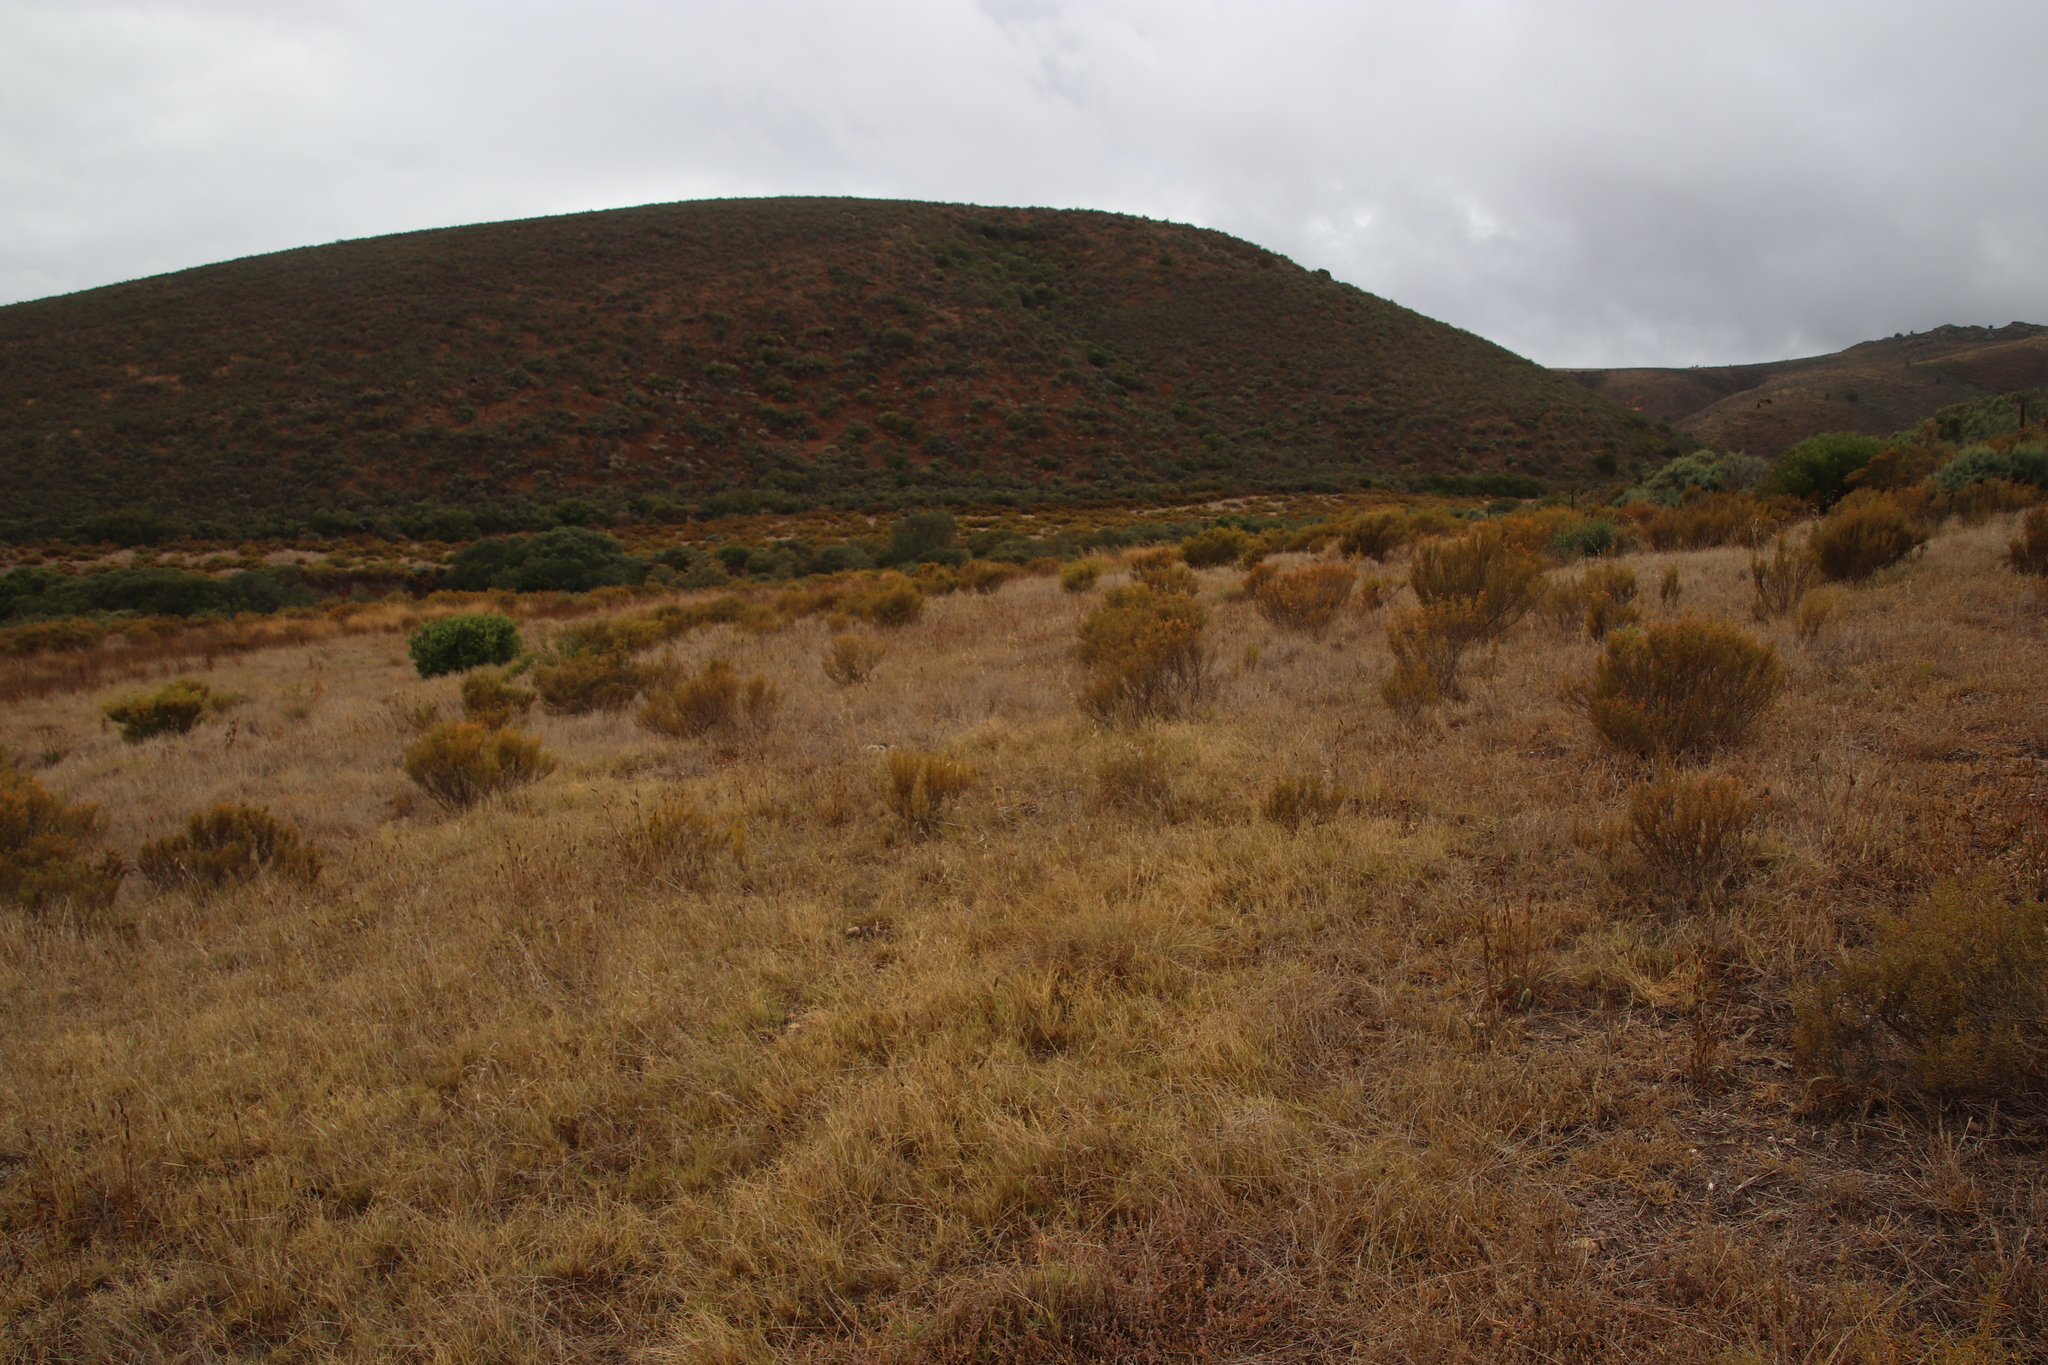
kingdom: Plantae
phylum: Tracheophyta
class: Magnoliopsida
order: Caryophyllales
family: Aizoaceae
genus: Aizoon
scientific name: Aizoon africanum
